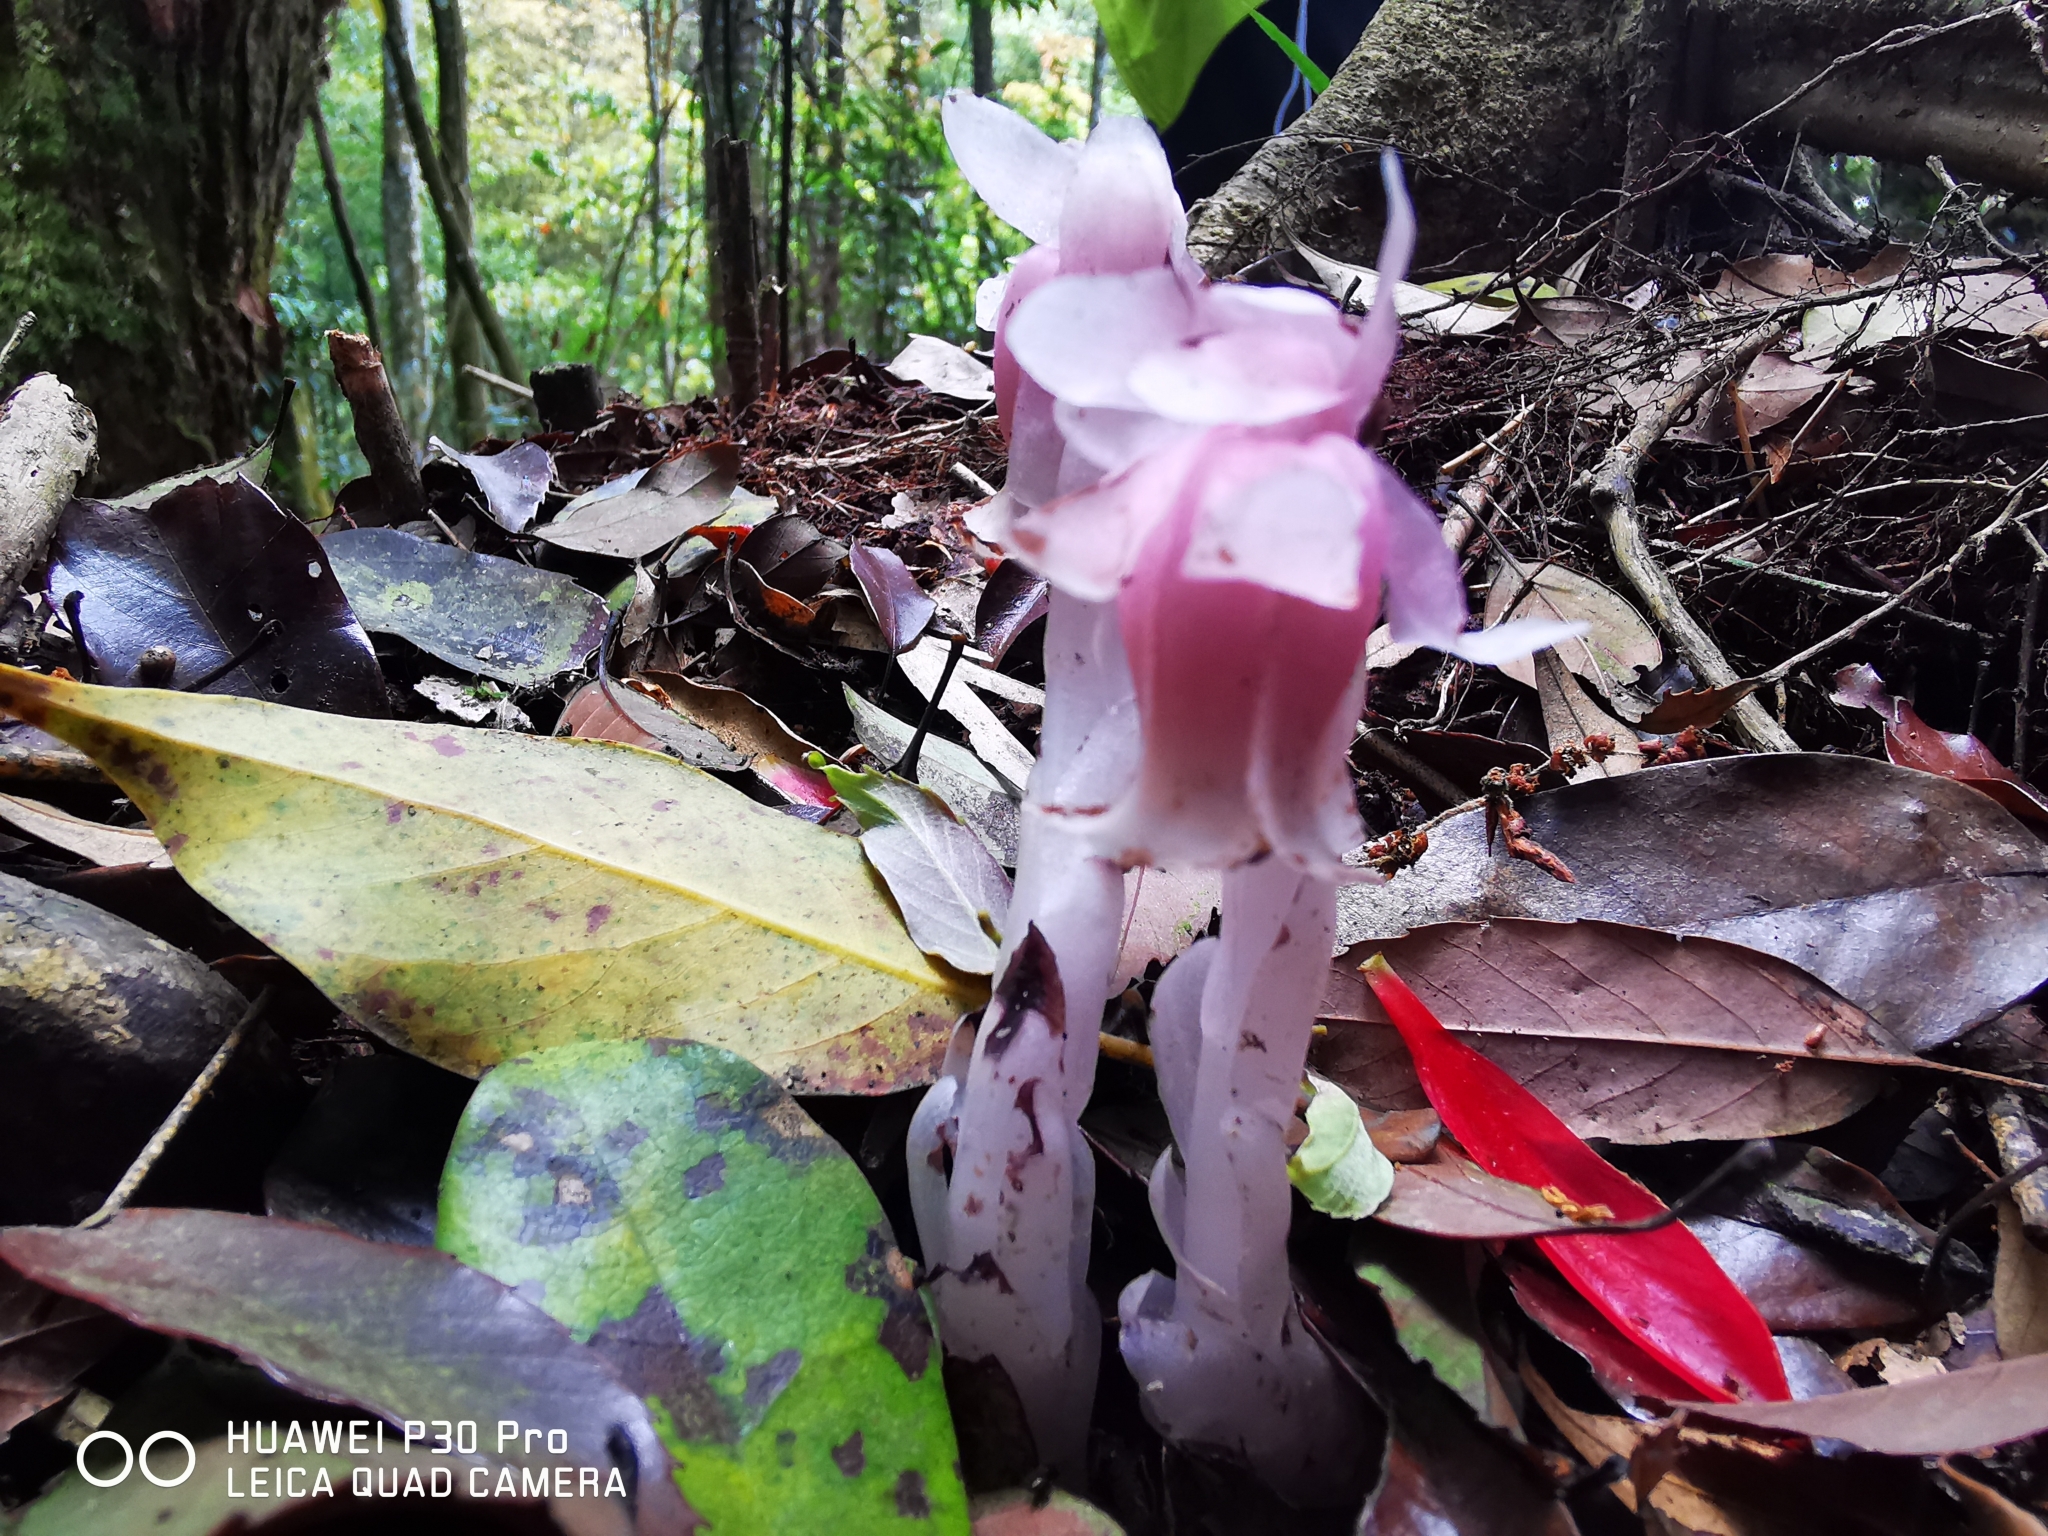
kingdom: Plantae
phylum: Tracheophyta
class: Magnoliopsida
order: Ericales
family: Ericaceae
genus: Monotropastrum
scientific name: Monotropastrum humile
